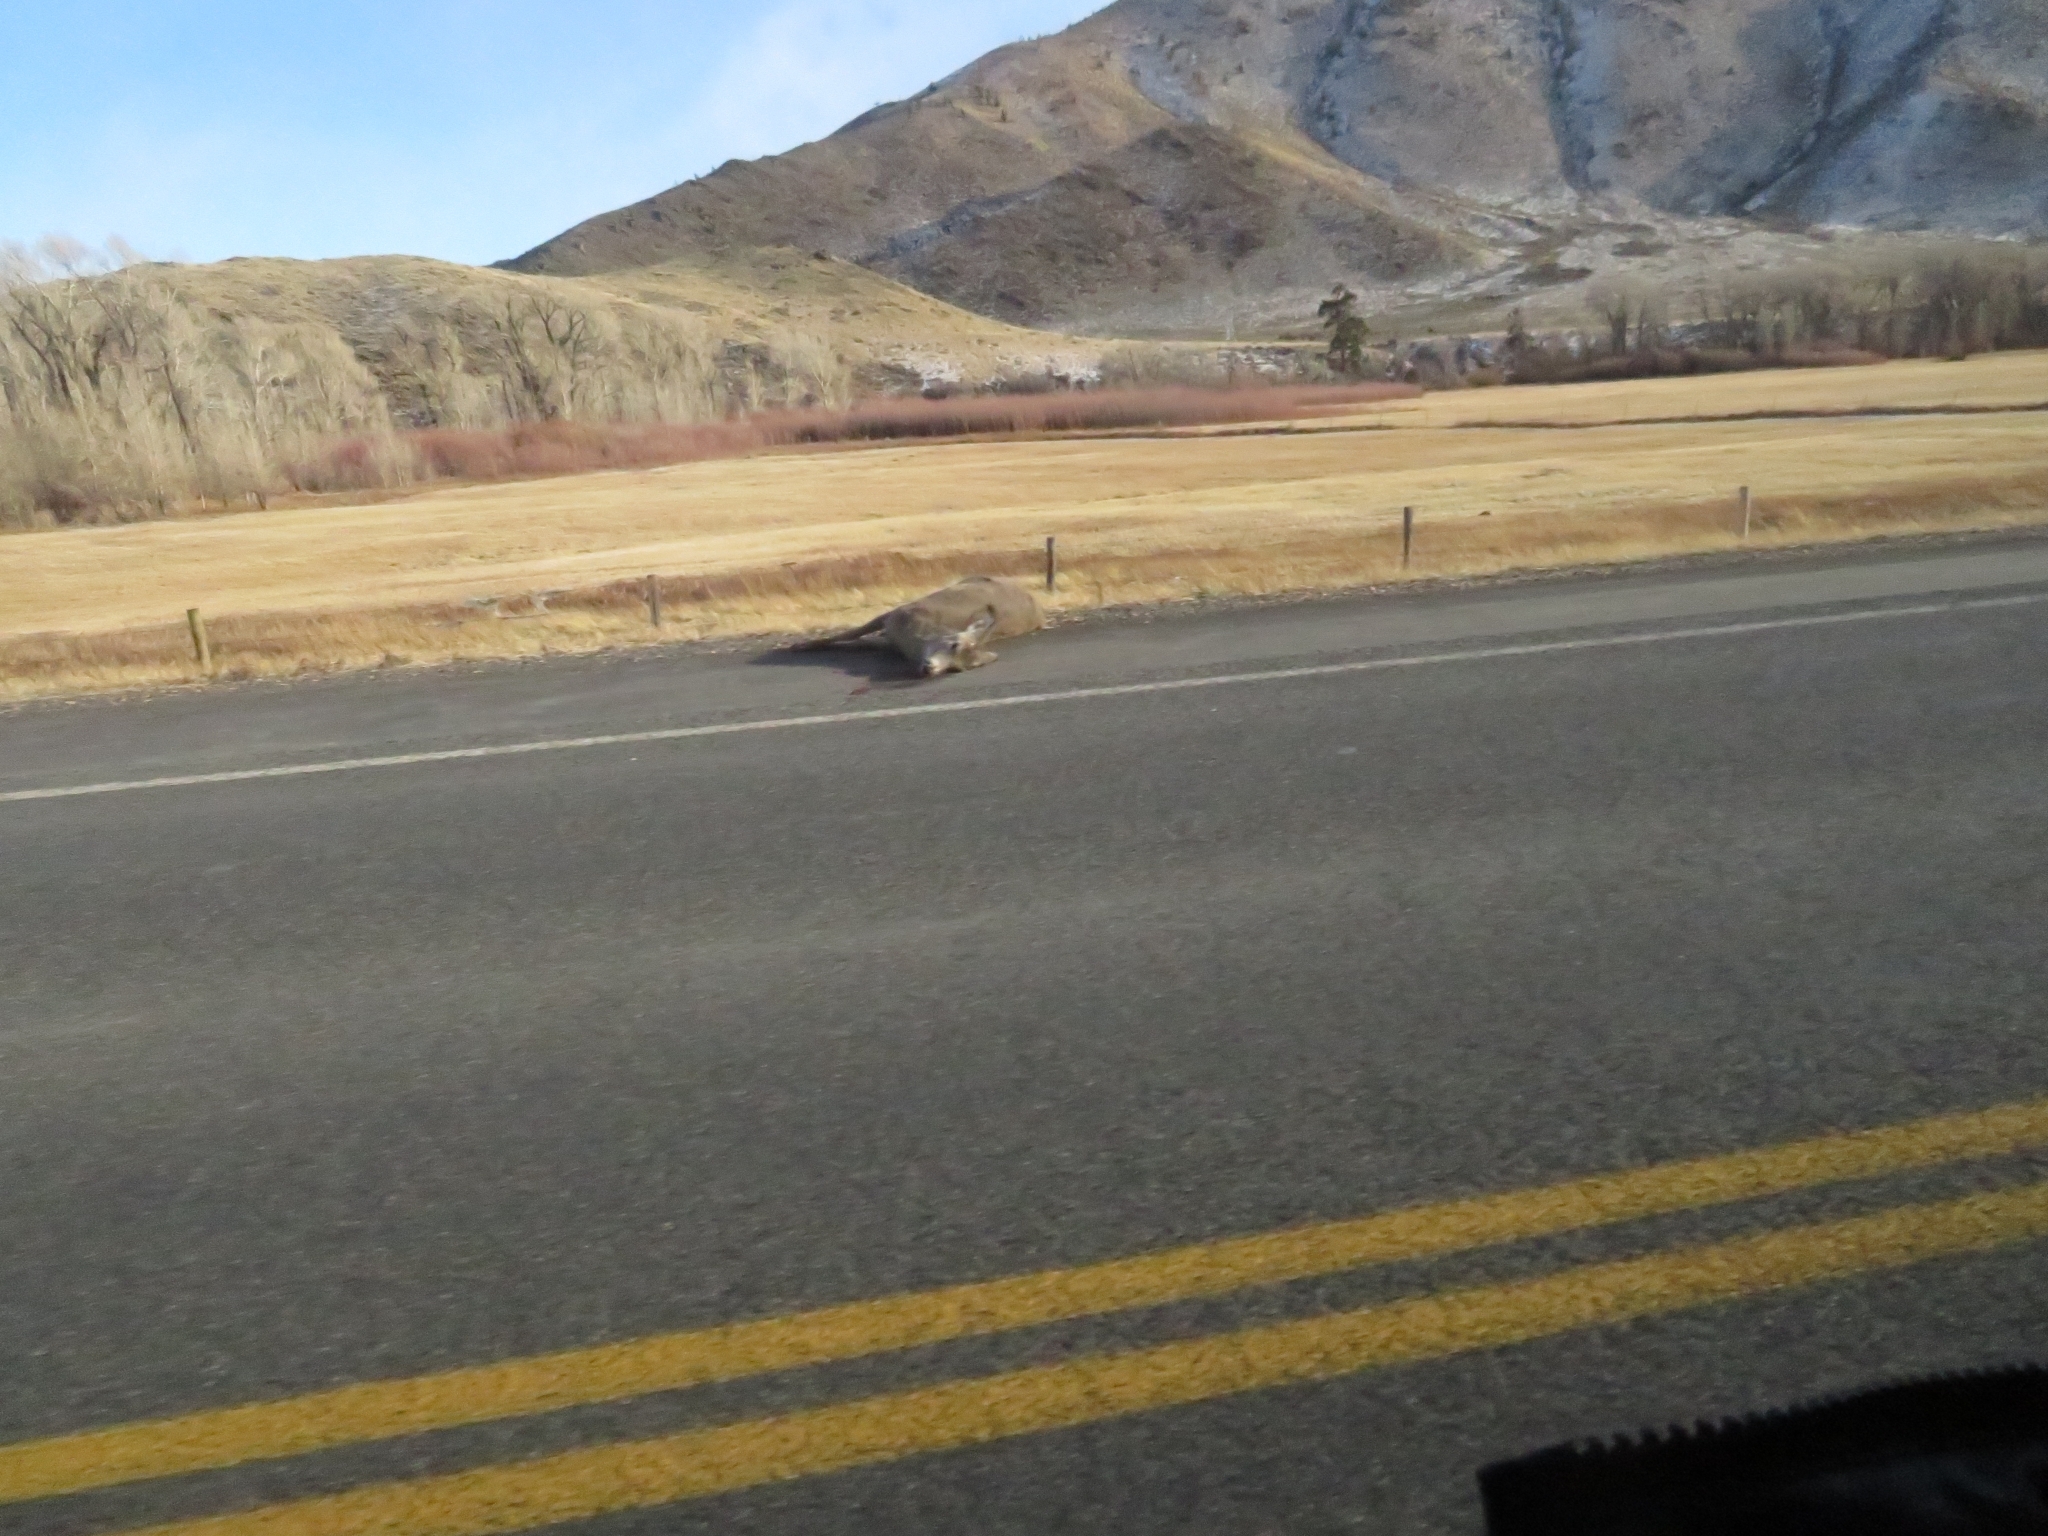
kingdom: Animalia
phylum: Chordata
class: Mammalia
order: Artiodactyla
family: Cervidae
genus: Odocoileus
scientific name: Odocoileus hemionus
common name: Mule deer
